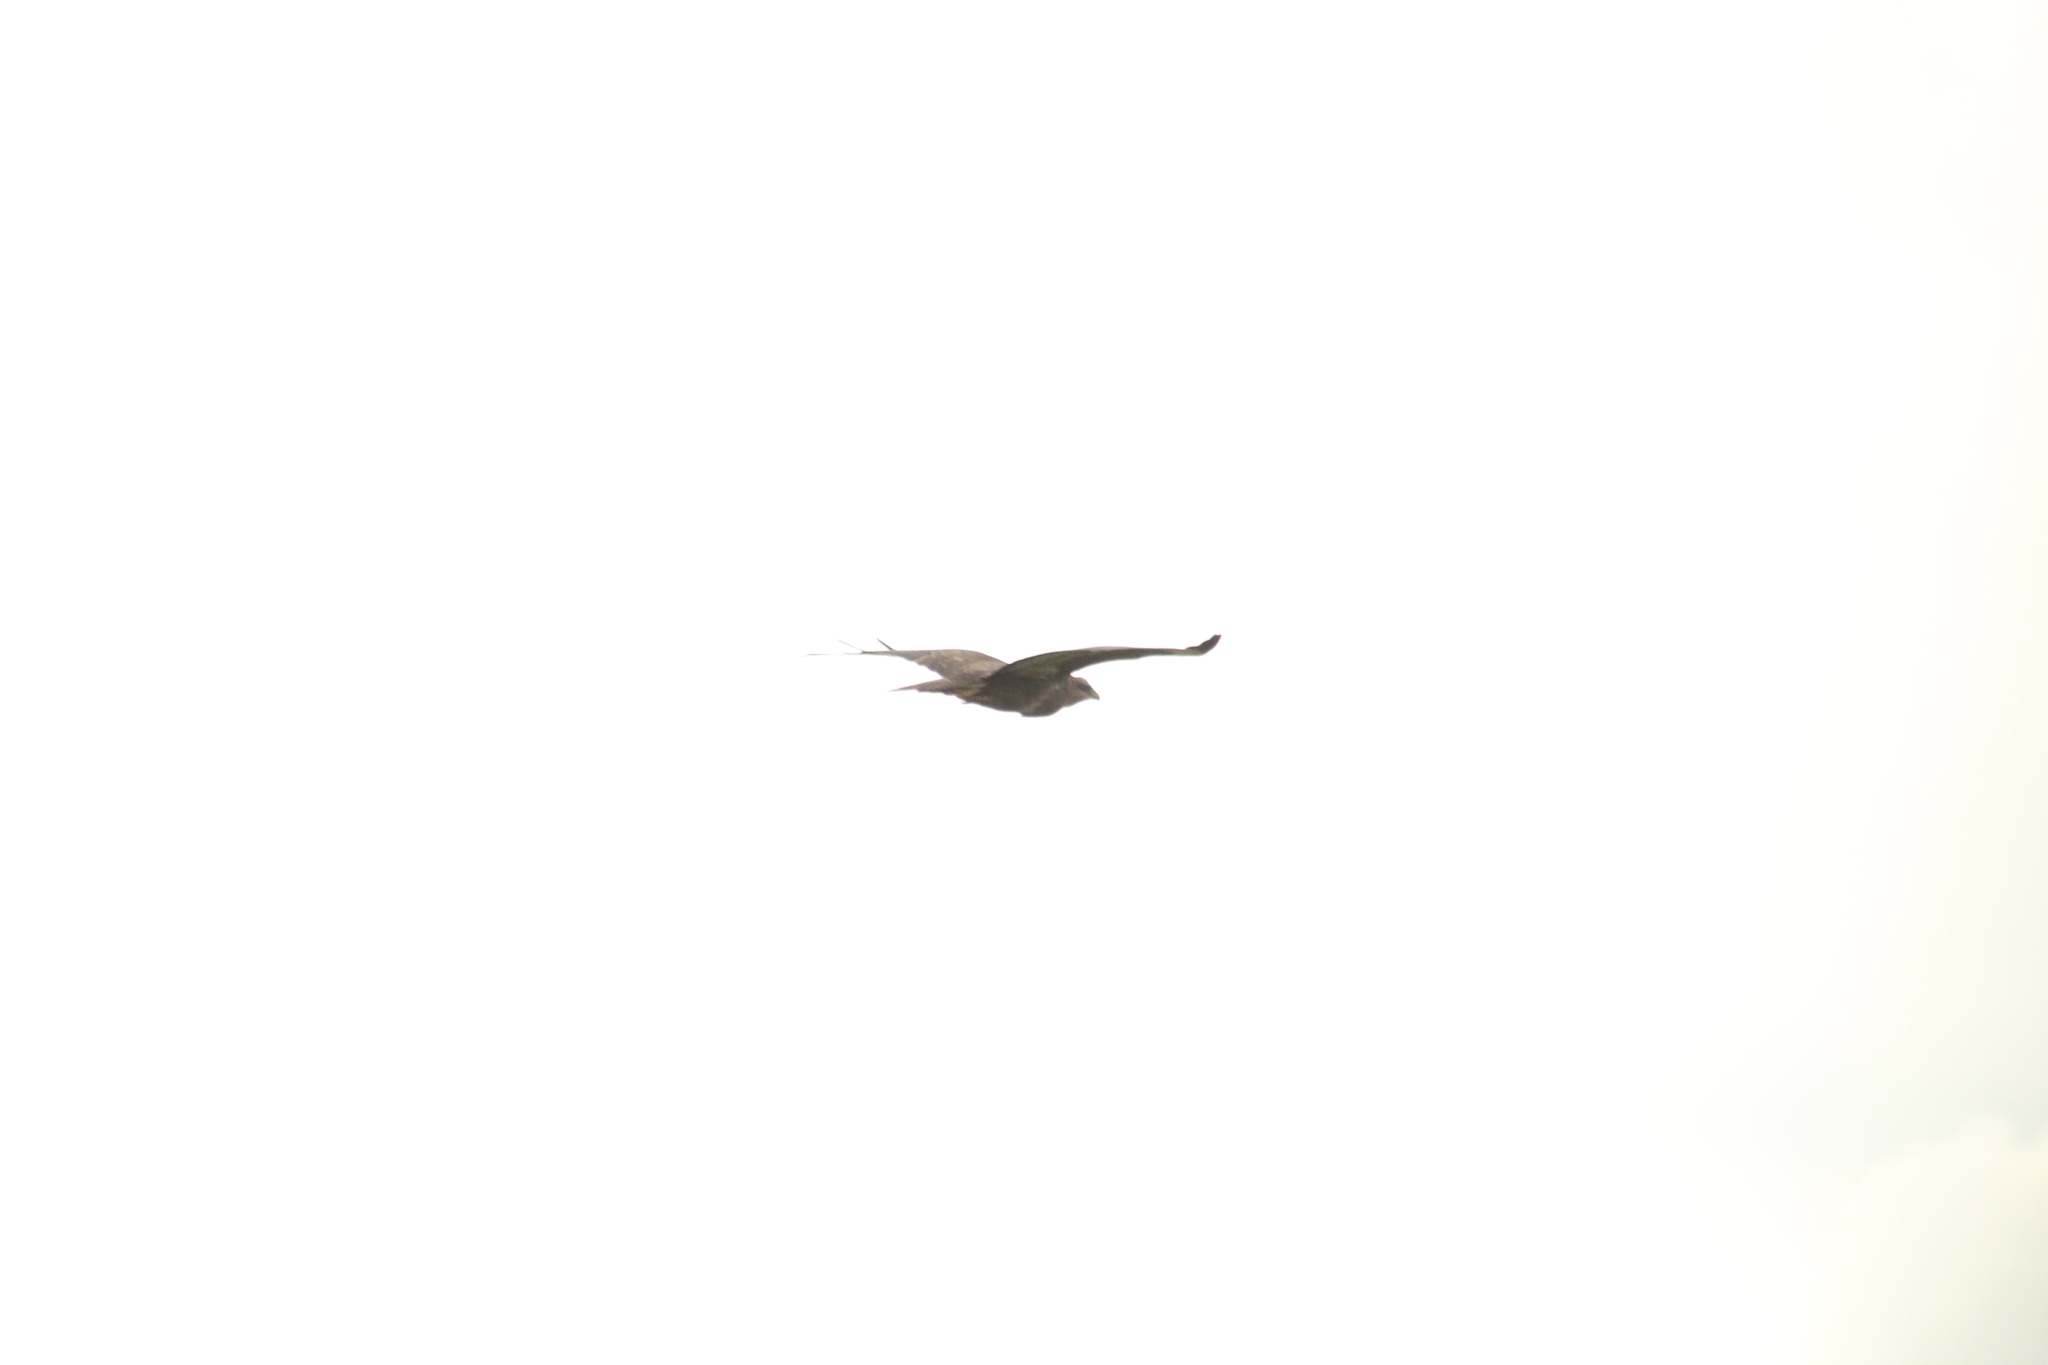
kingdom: Animalia
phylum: Chordata
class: Aves
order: Accipitriformes
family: Accipitridae
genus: Buteo
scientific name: Buteo buteo
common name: Common buzzard
